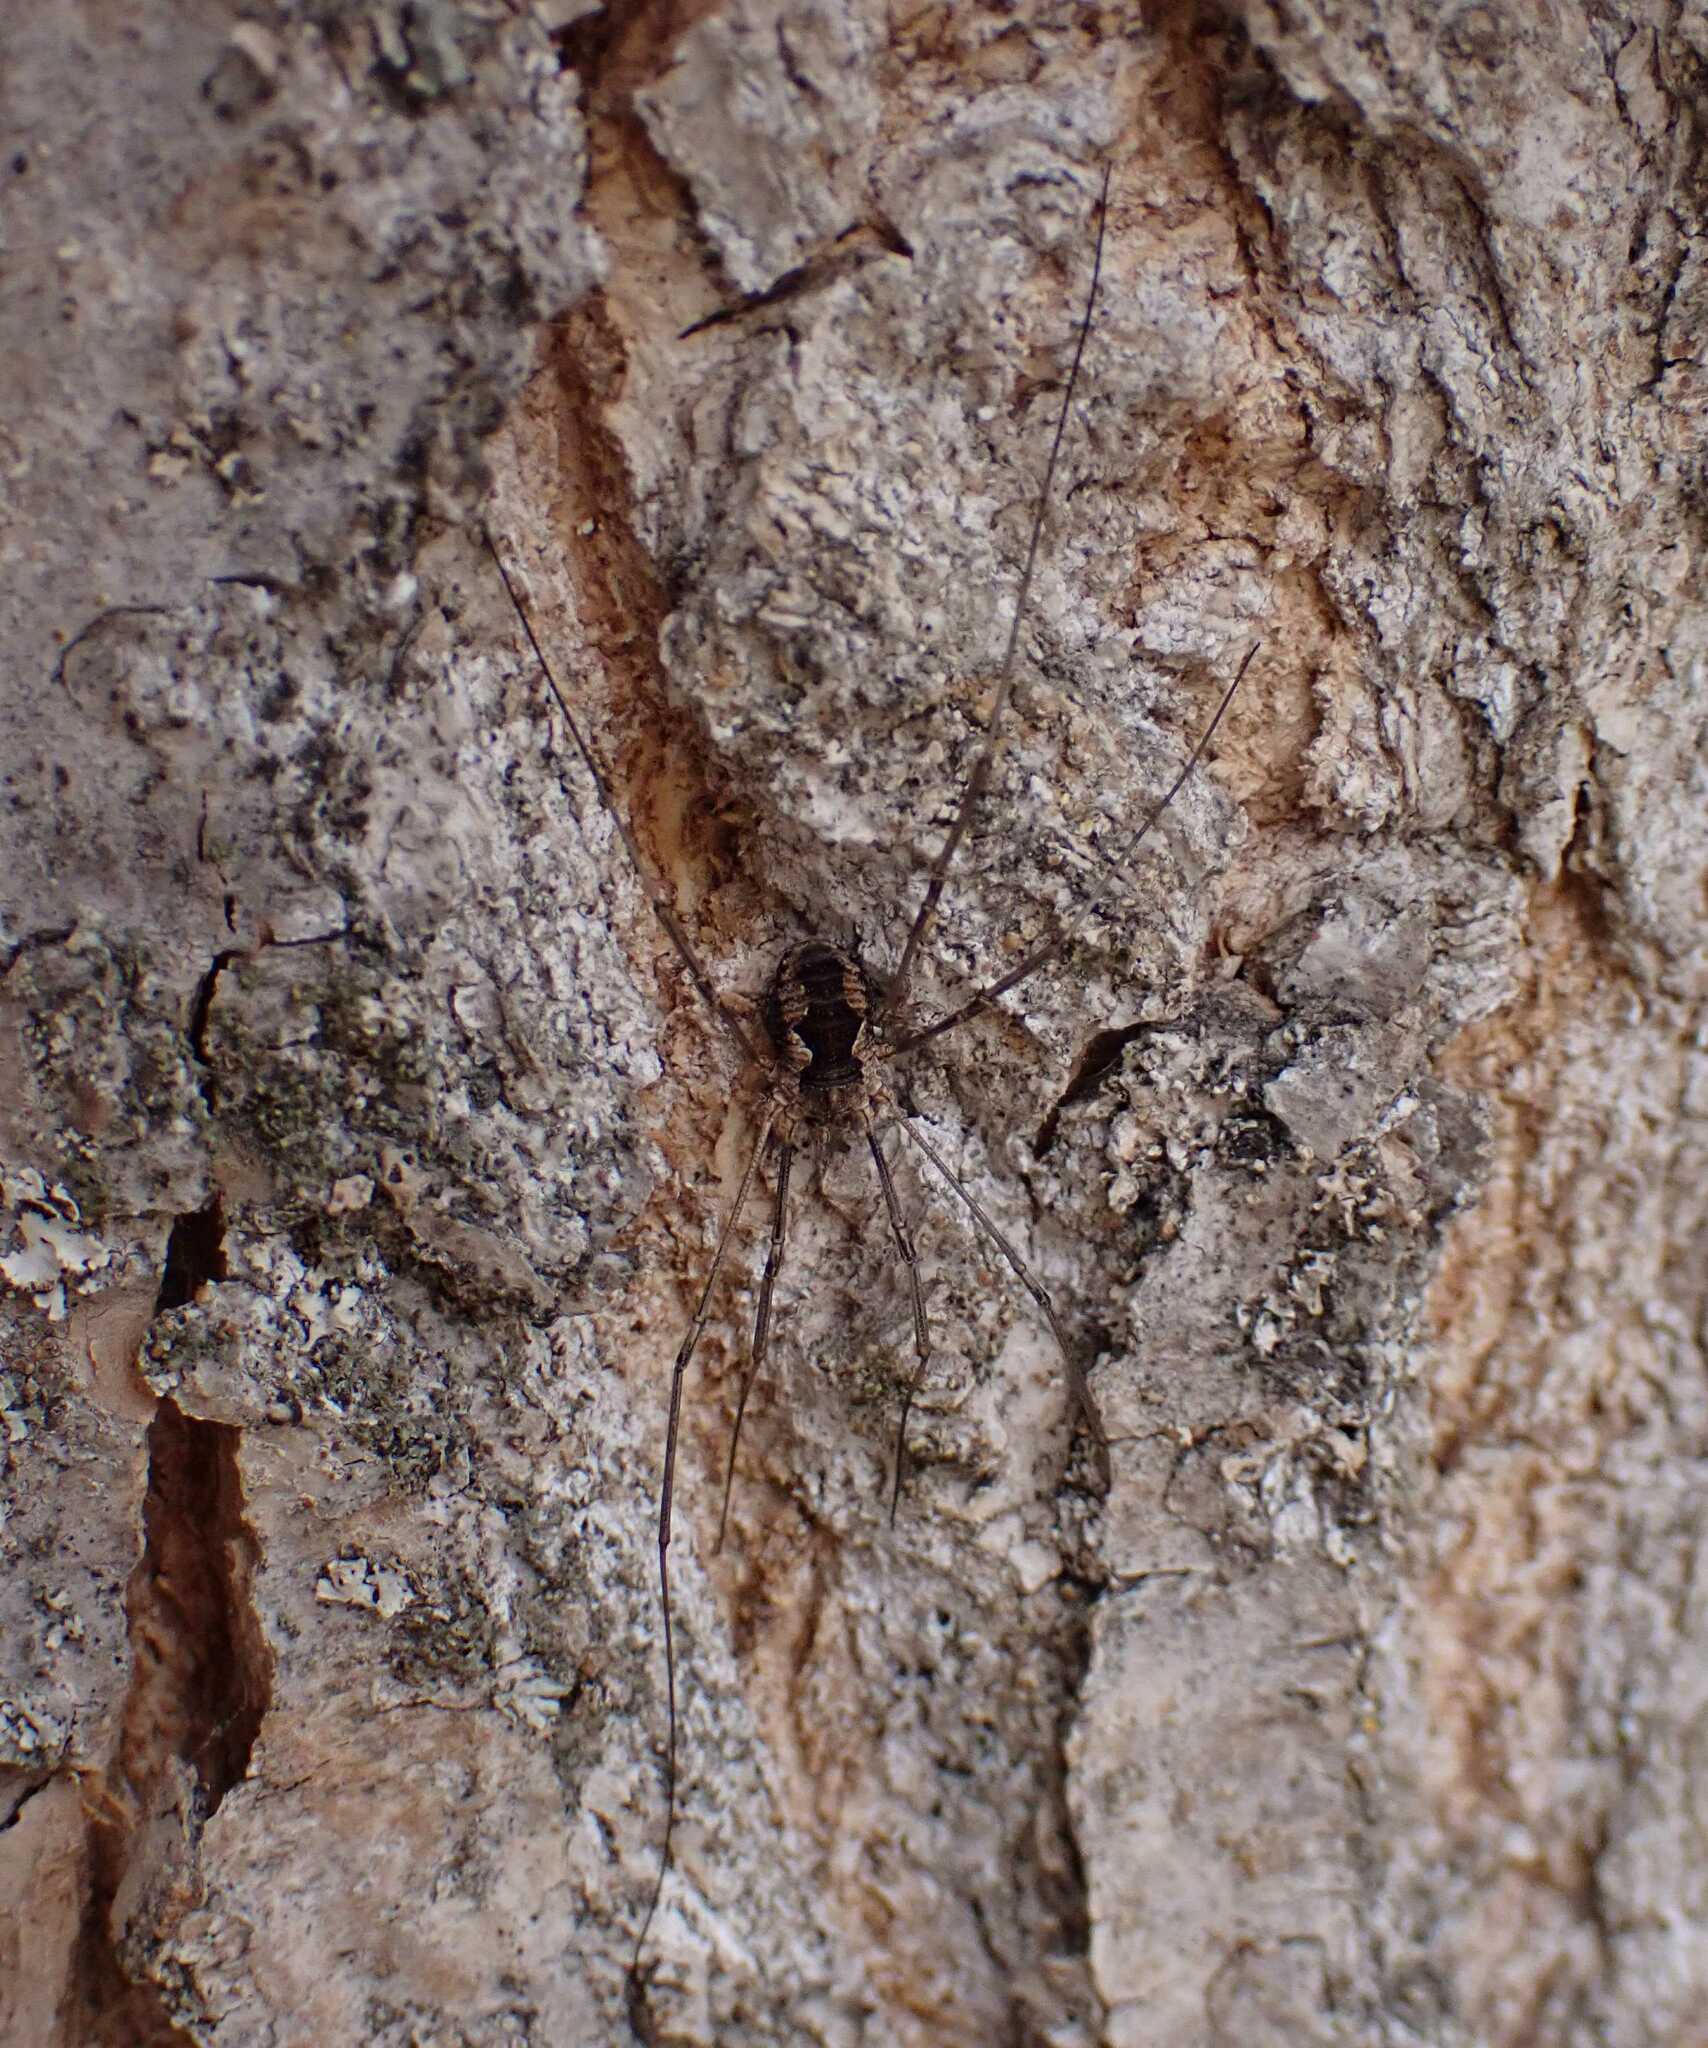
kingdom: Animalia
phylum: Arthropoda
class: Arachnida
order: Opiliones
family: Phalangiidae
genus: Phalangium
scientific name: Phalangium opilio
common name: Daddy longleg
